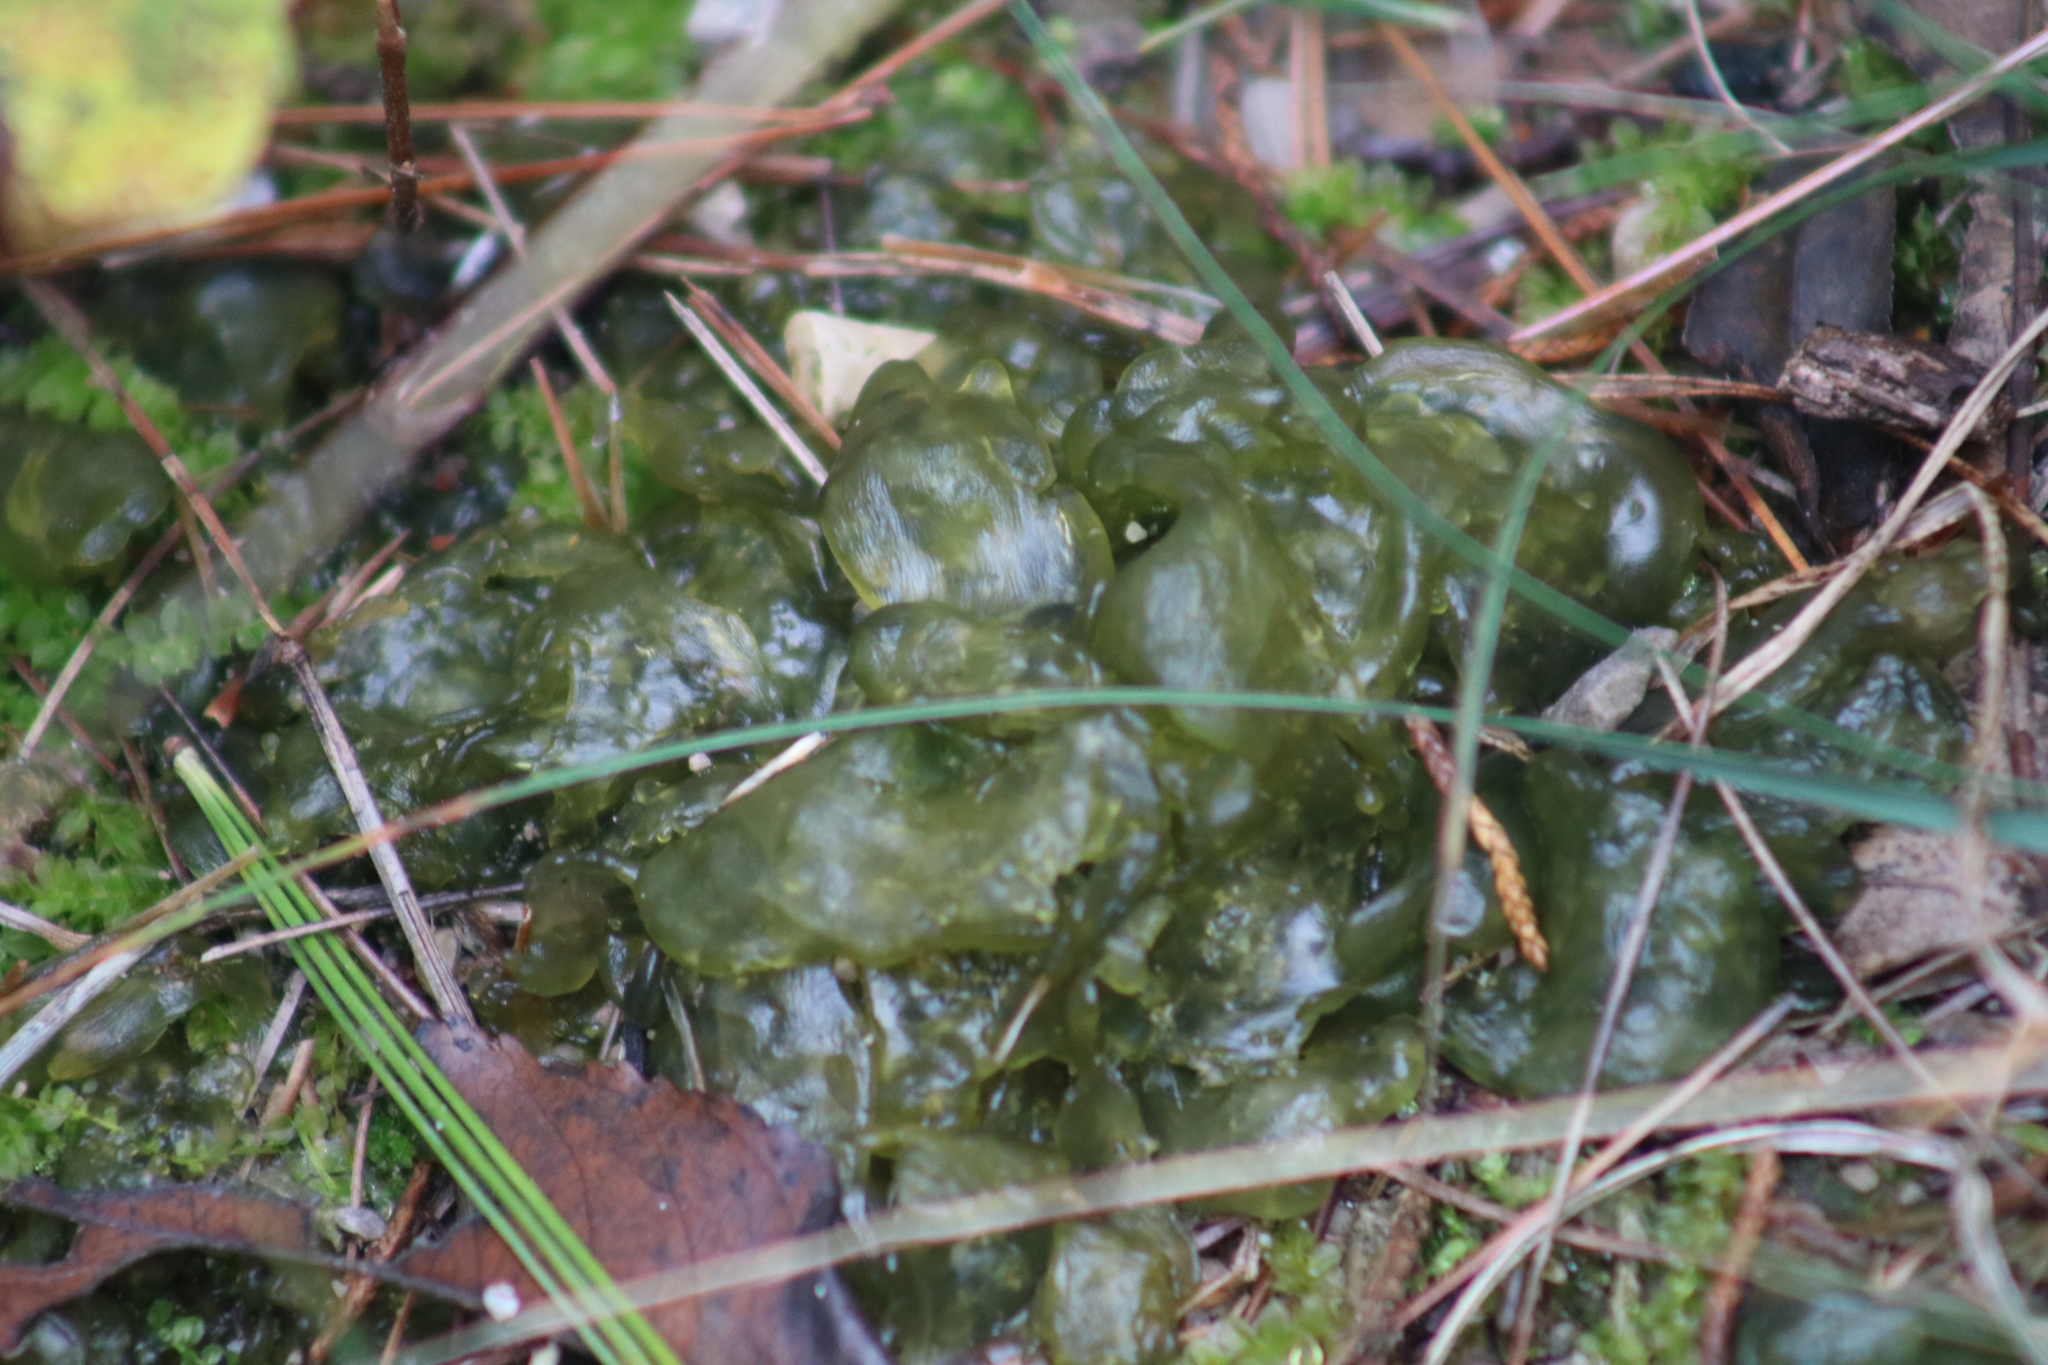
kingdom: Bacteria
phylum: Cyanobacteria
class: Cyanobacteriia
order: Cyanobacteriales
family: Nostocaceae
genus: Nostoc
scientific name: Nostoc commune
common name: Star jelly
